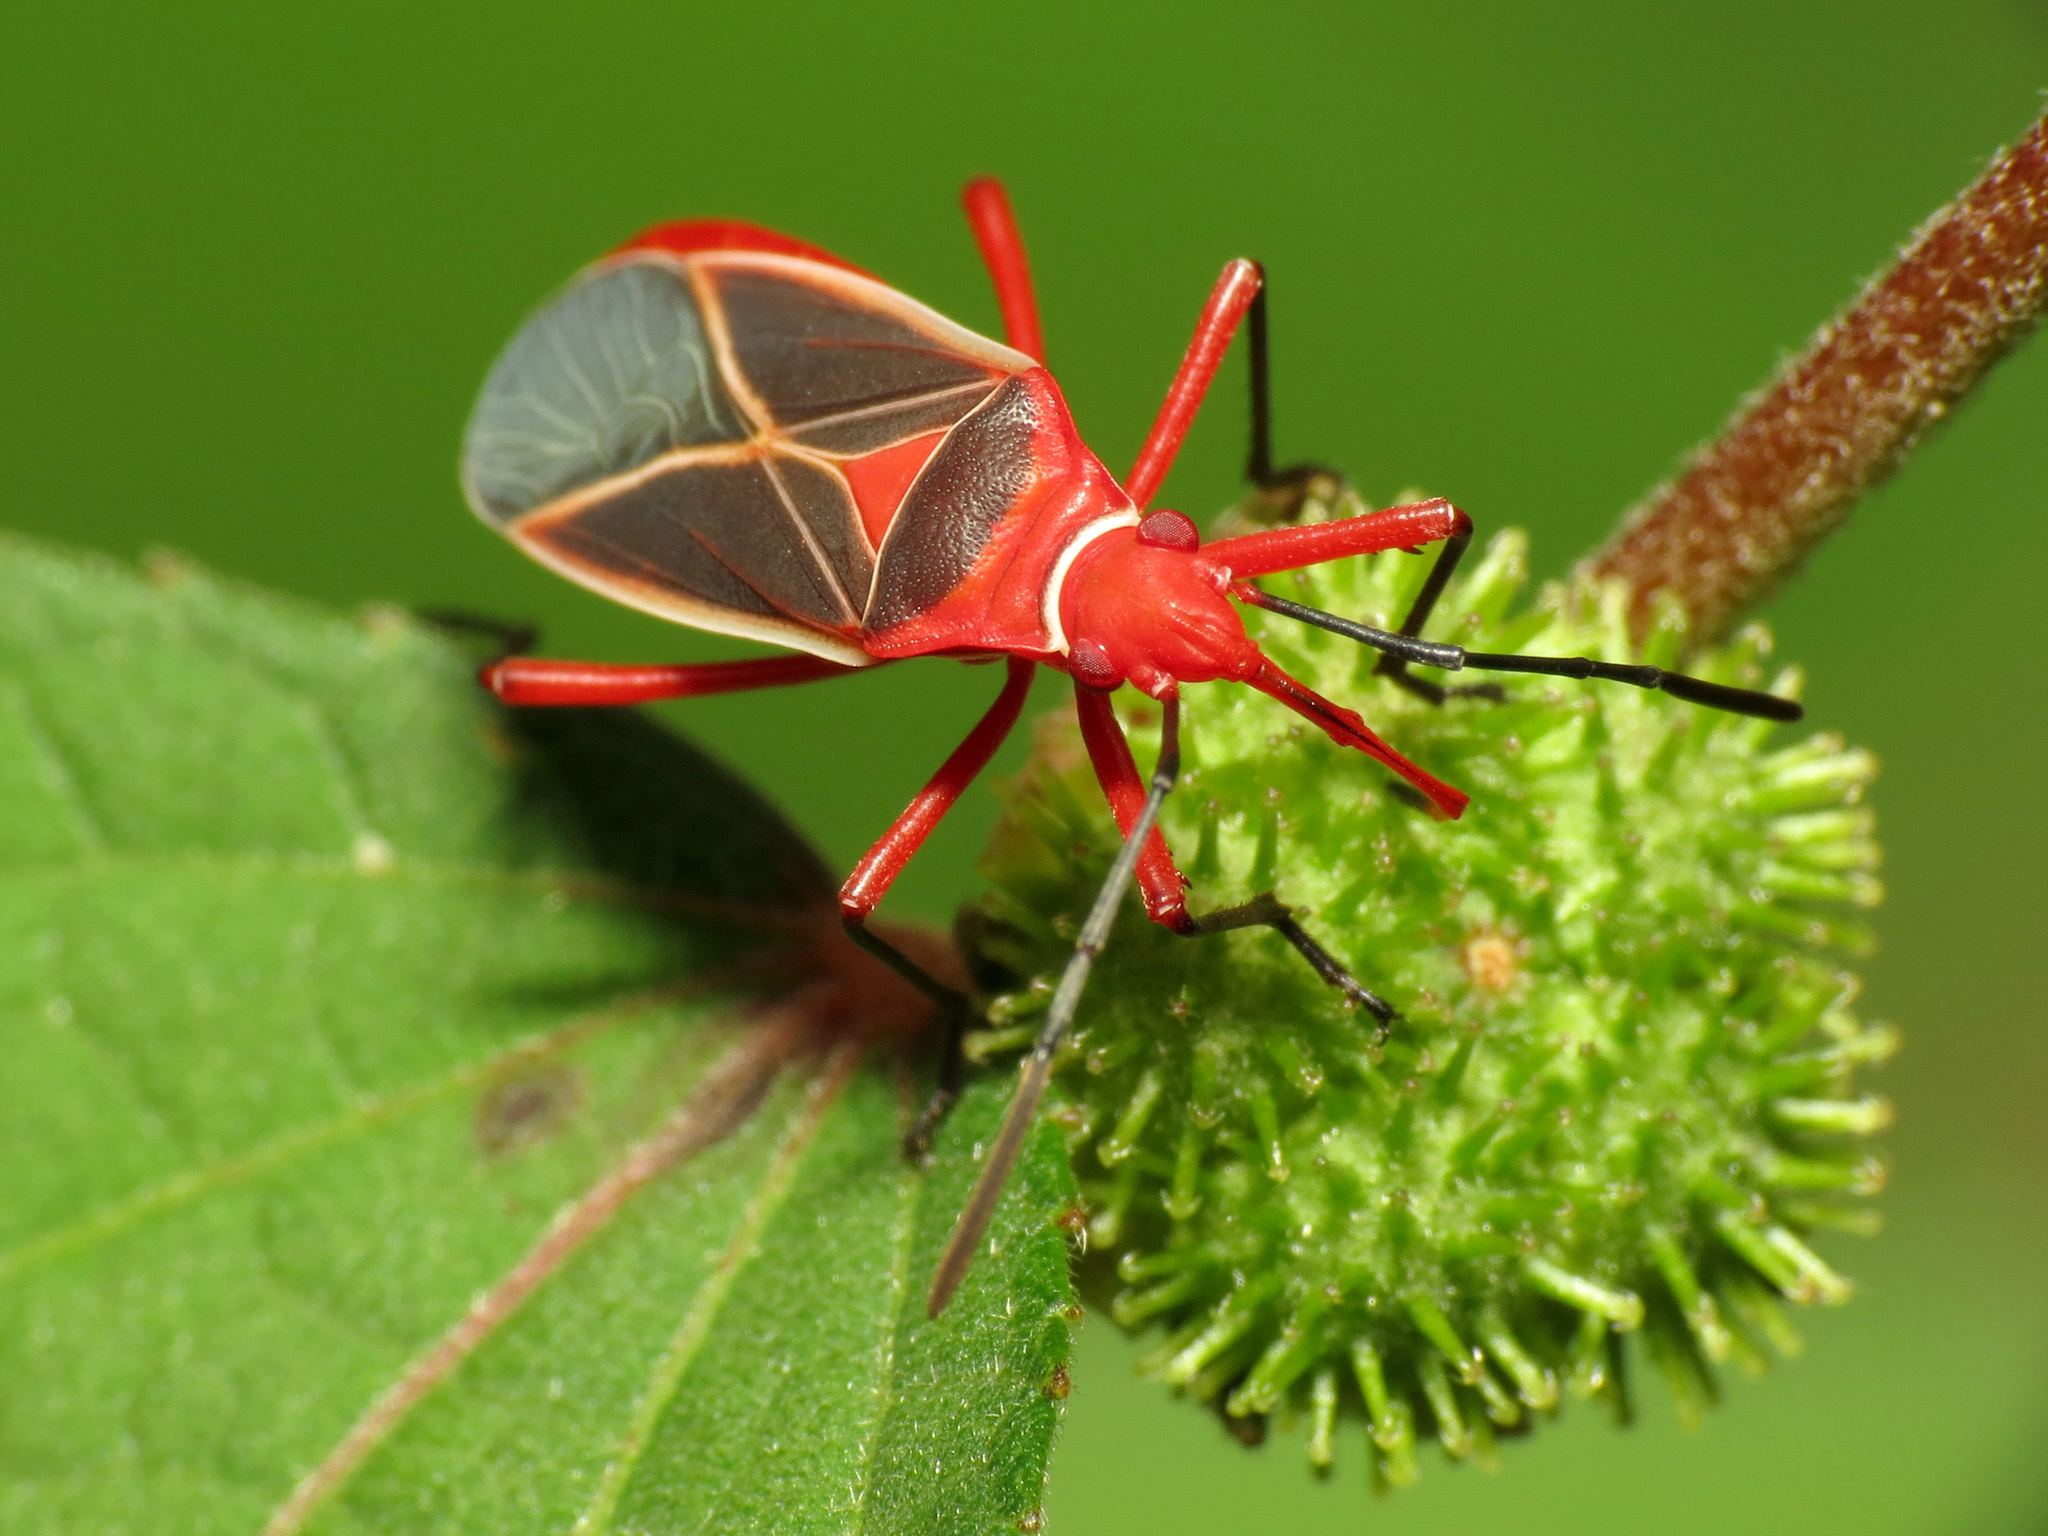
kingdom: Animalia
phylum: Arthropoda
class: Insecta
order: Hemiptera
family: Pyrrhocoridae
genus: Dysdercus
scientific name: Dysdercus suturellus
